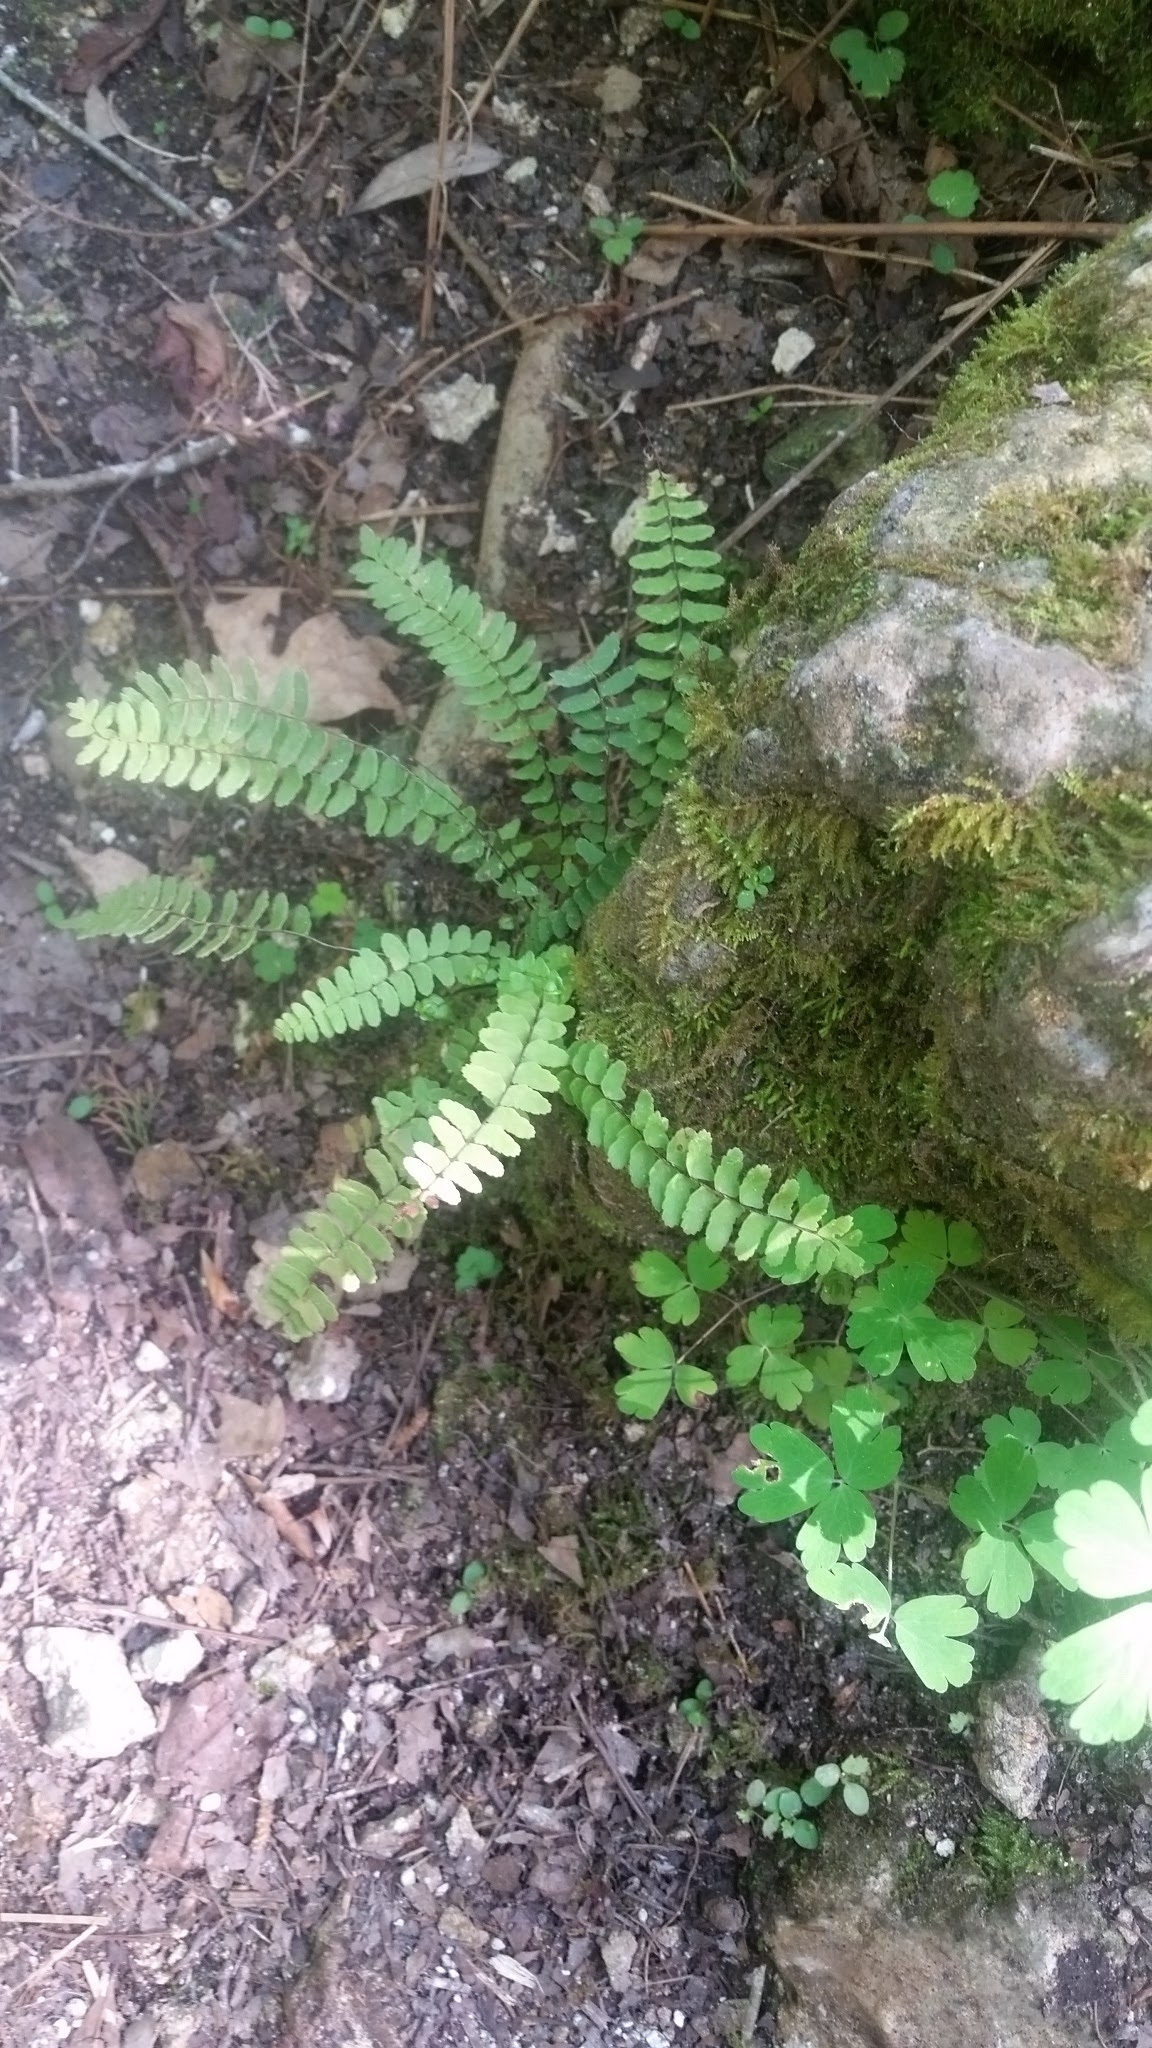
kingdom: Plantae
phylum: Tracheophyta
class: Polypodiopsida
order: Polypodiales
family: Aspleniaceae
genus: Asplenium
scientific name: Asplenium platyneuron
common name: Ebony spleenwort
